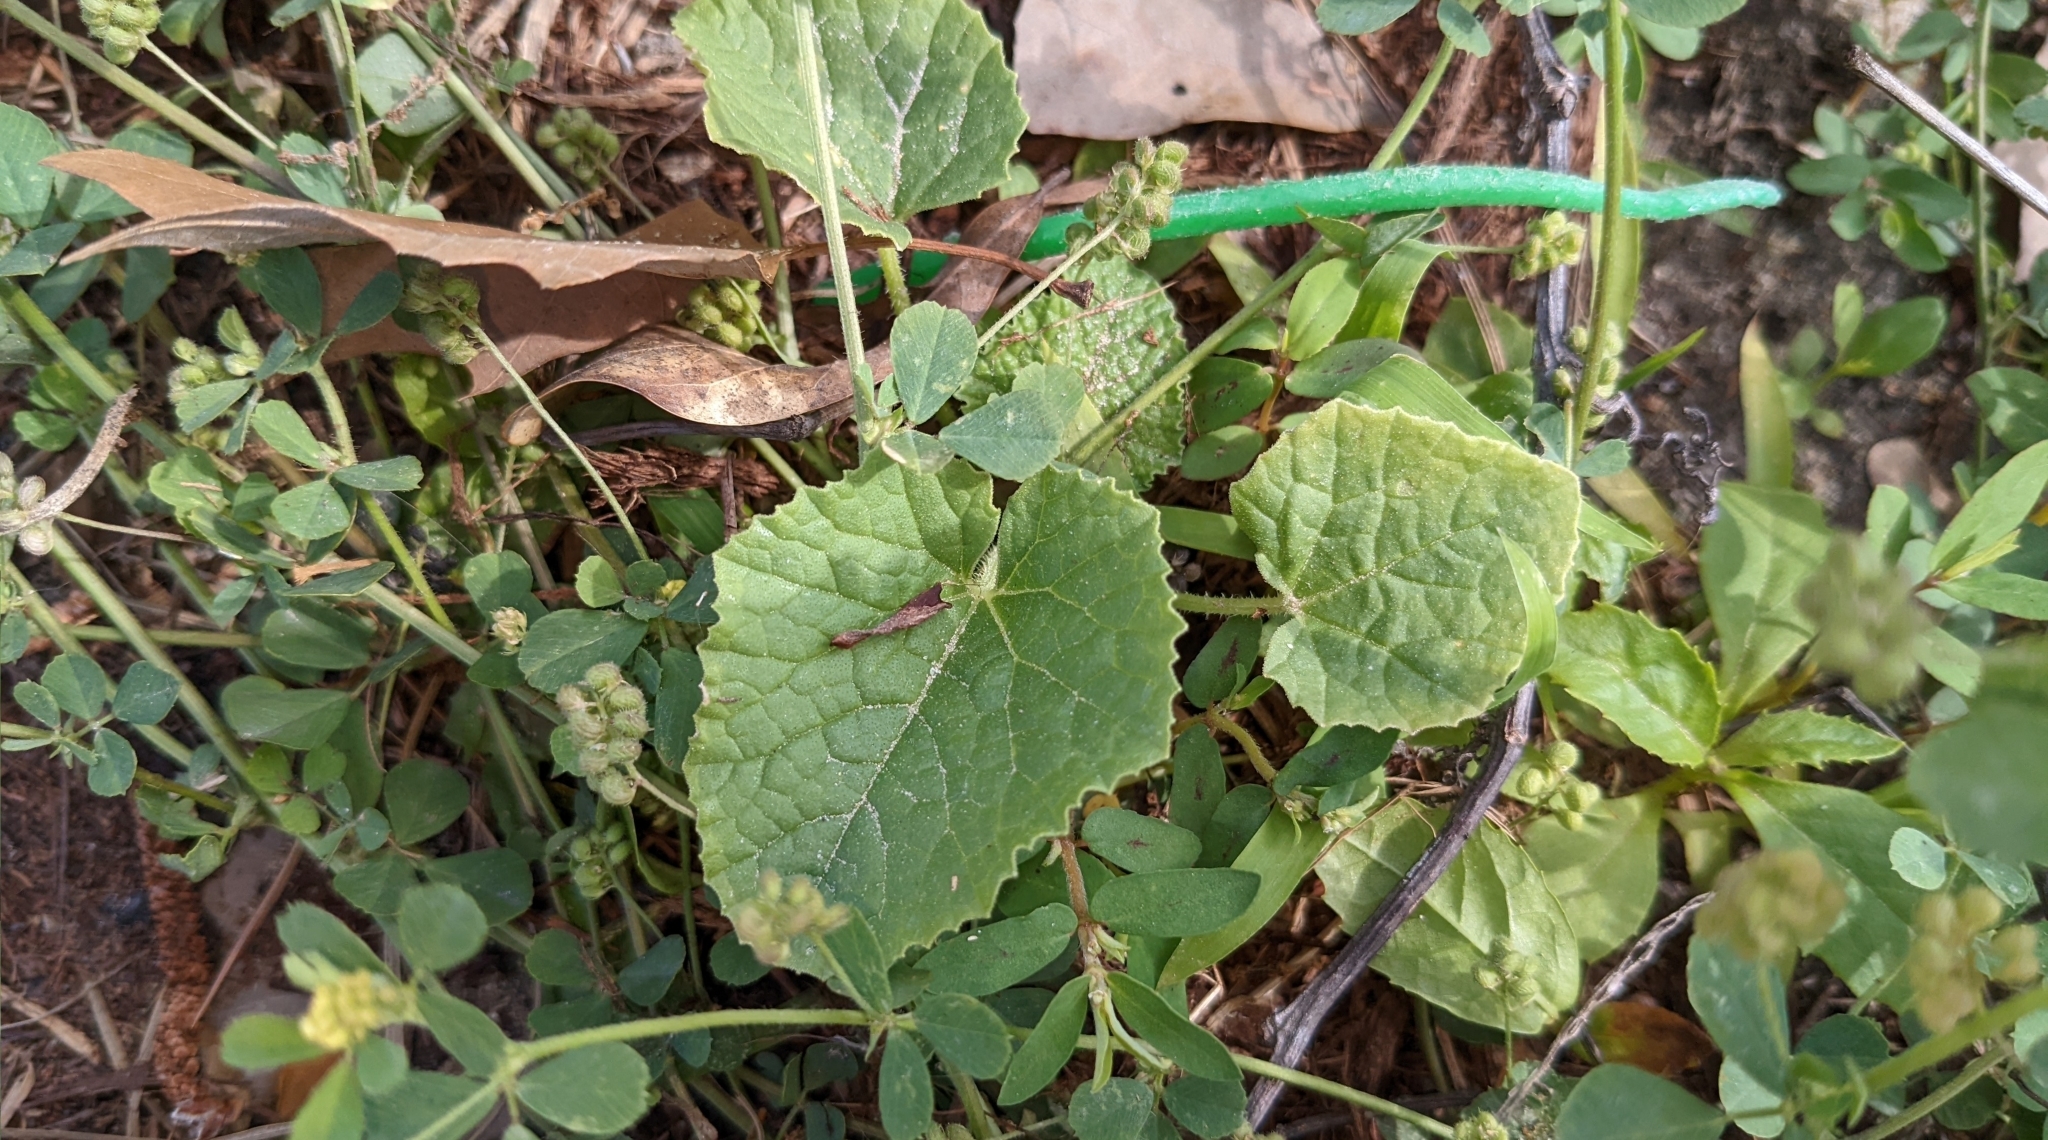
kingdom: Plantae
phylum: Tracheophyta
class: Magnoliopsida
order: Cucurbitales
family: Cucurbitaceae
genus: Cucumis
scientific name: Cucumis melo
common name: Melon
